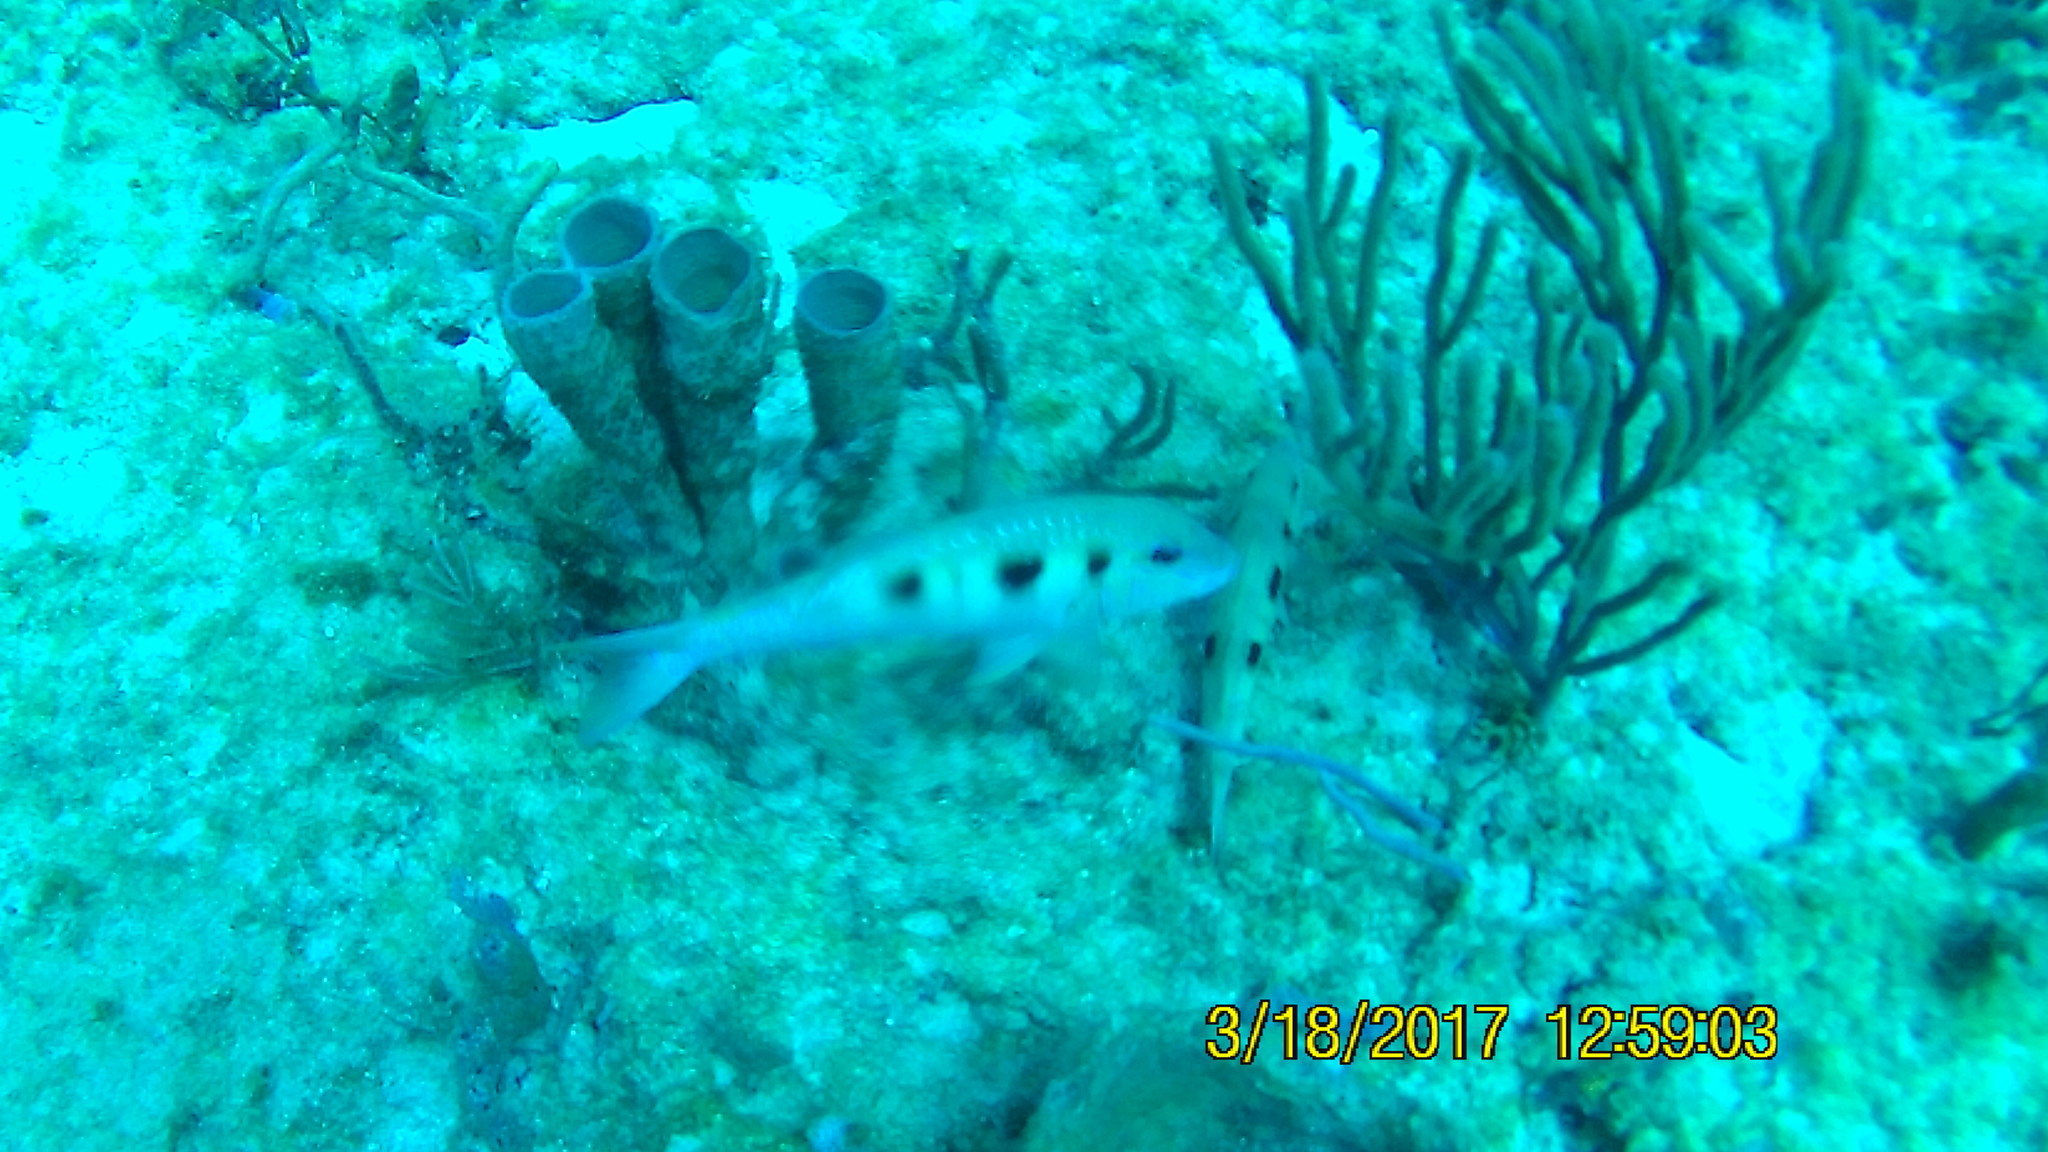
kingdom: Animalia
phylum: Chordata
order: Perciformes
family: Mullidae
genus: Pseudupeneus
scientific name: Pseudupeneus maculatus
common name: Spotted goatfish
